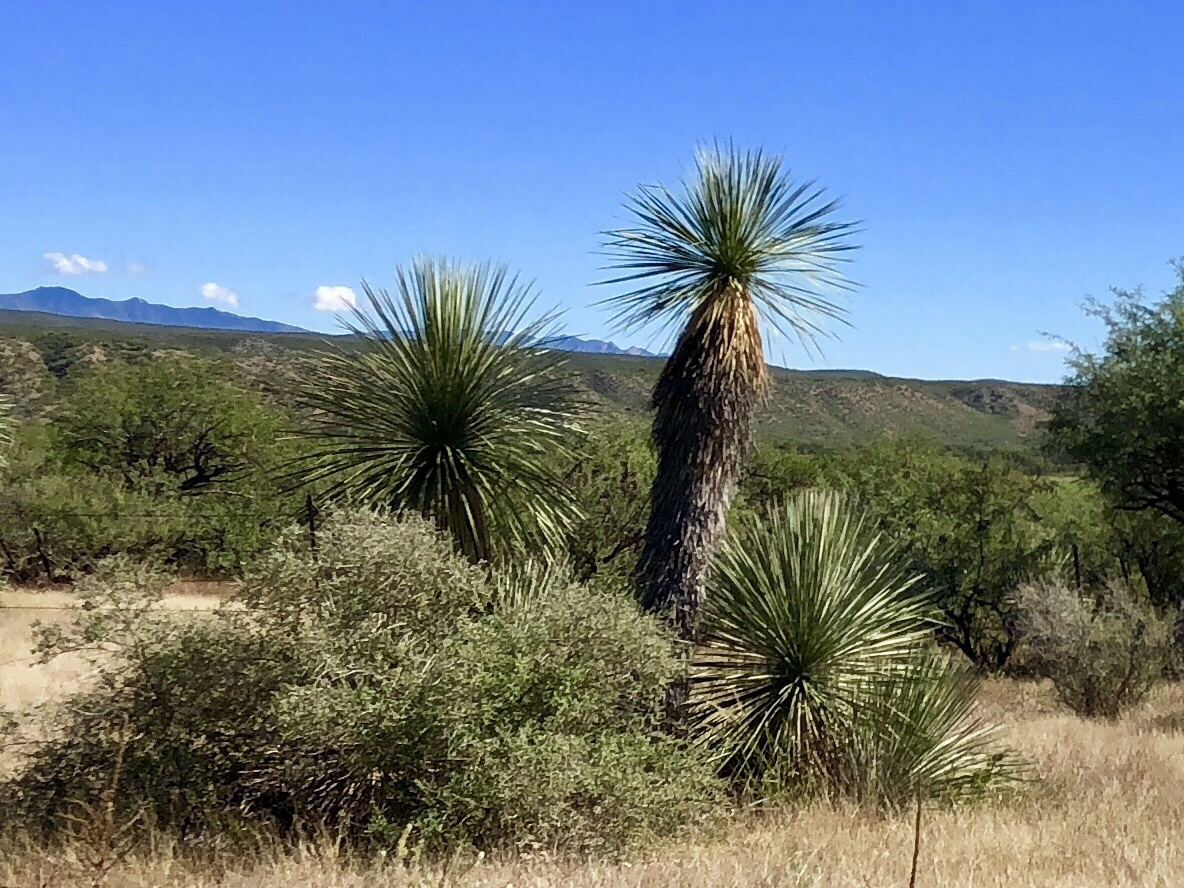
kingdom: Plantae
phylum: Tracheophyta
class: Liliopsida
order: Asparagales
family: Asparagaceae
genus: Yucca
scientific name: Yucca elata
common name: Palmella
